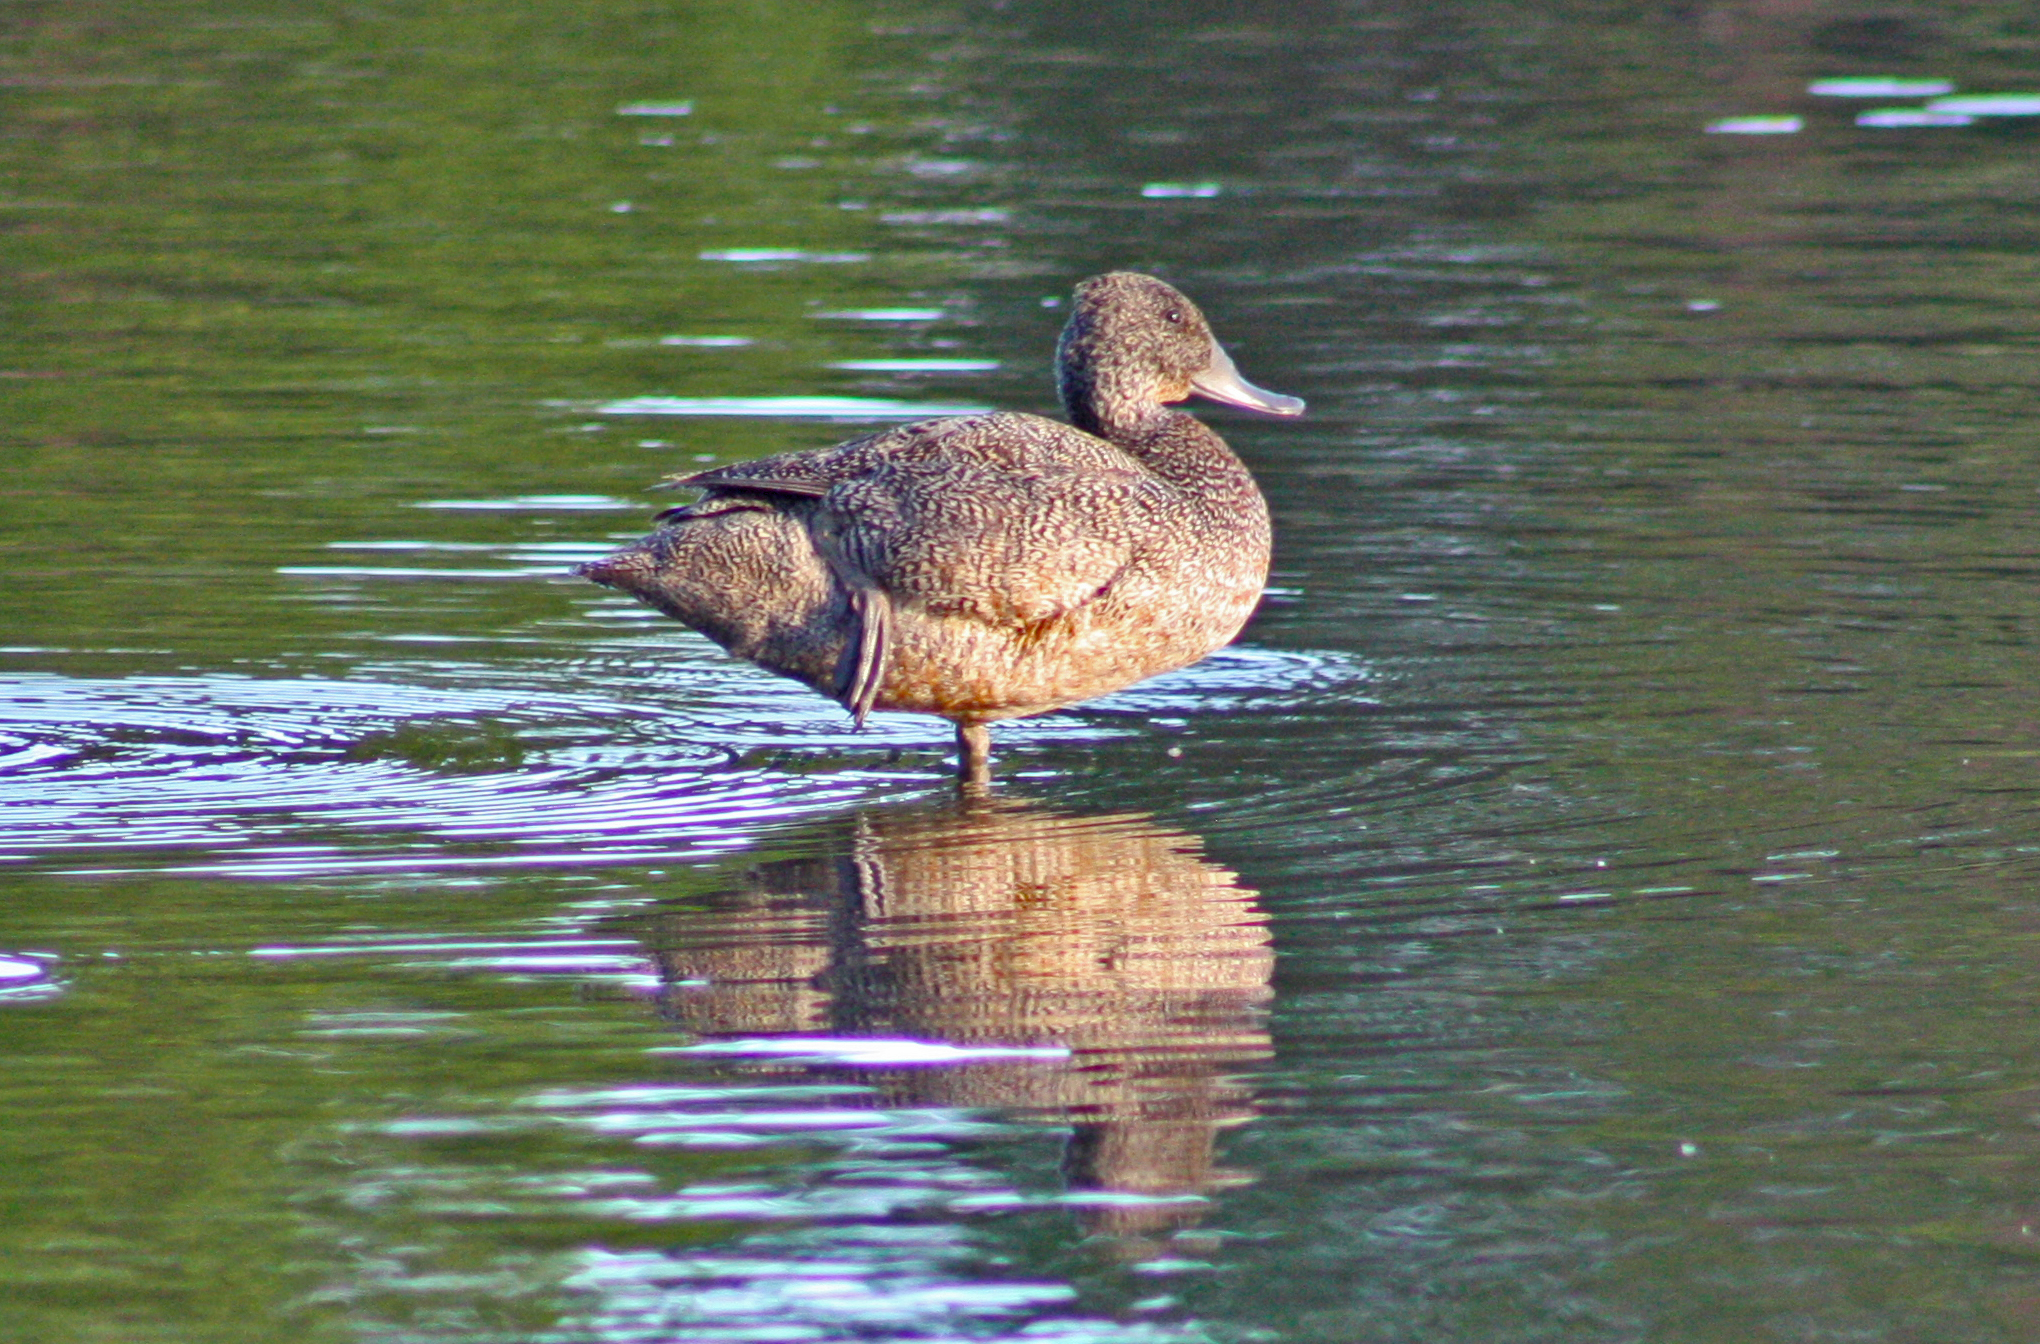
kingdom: Animalia
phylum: Chordata
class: Aves
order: Anseriformes
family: Anatidae
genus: Stictonetta
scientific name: Stictonetta naevosa
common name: Freckled duck
